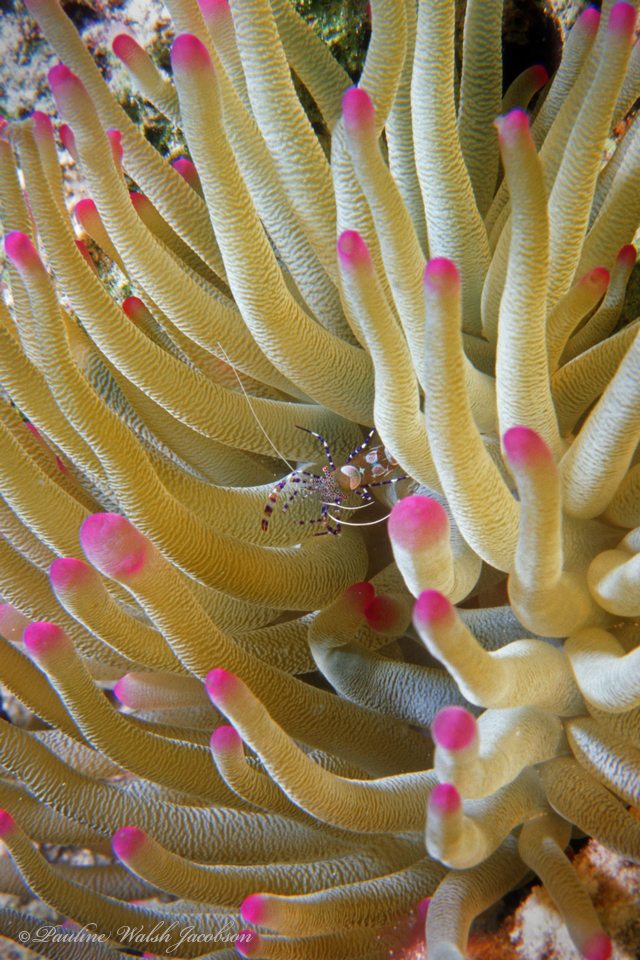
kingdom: Animalia
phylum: Arthropoda
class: Malacostraca
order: Decapoda
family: Palaemonidae
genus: Periclimenes
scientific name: Periclimenes yucatanicus
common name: Spotted cleaning shrimp
